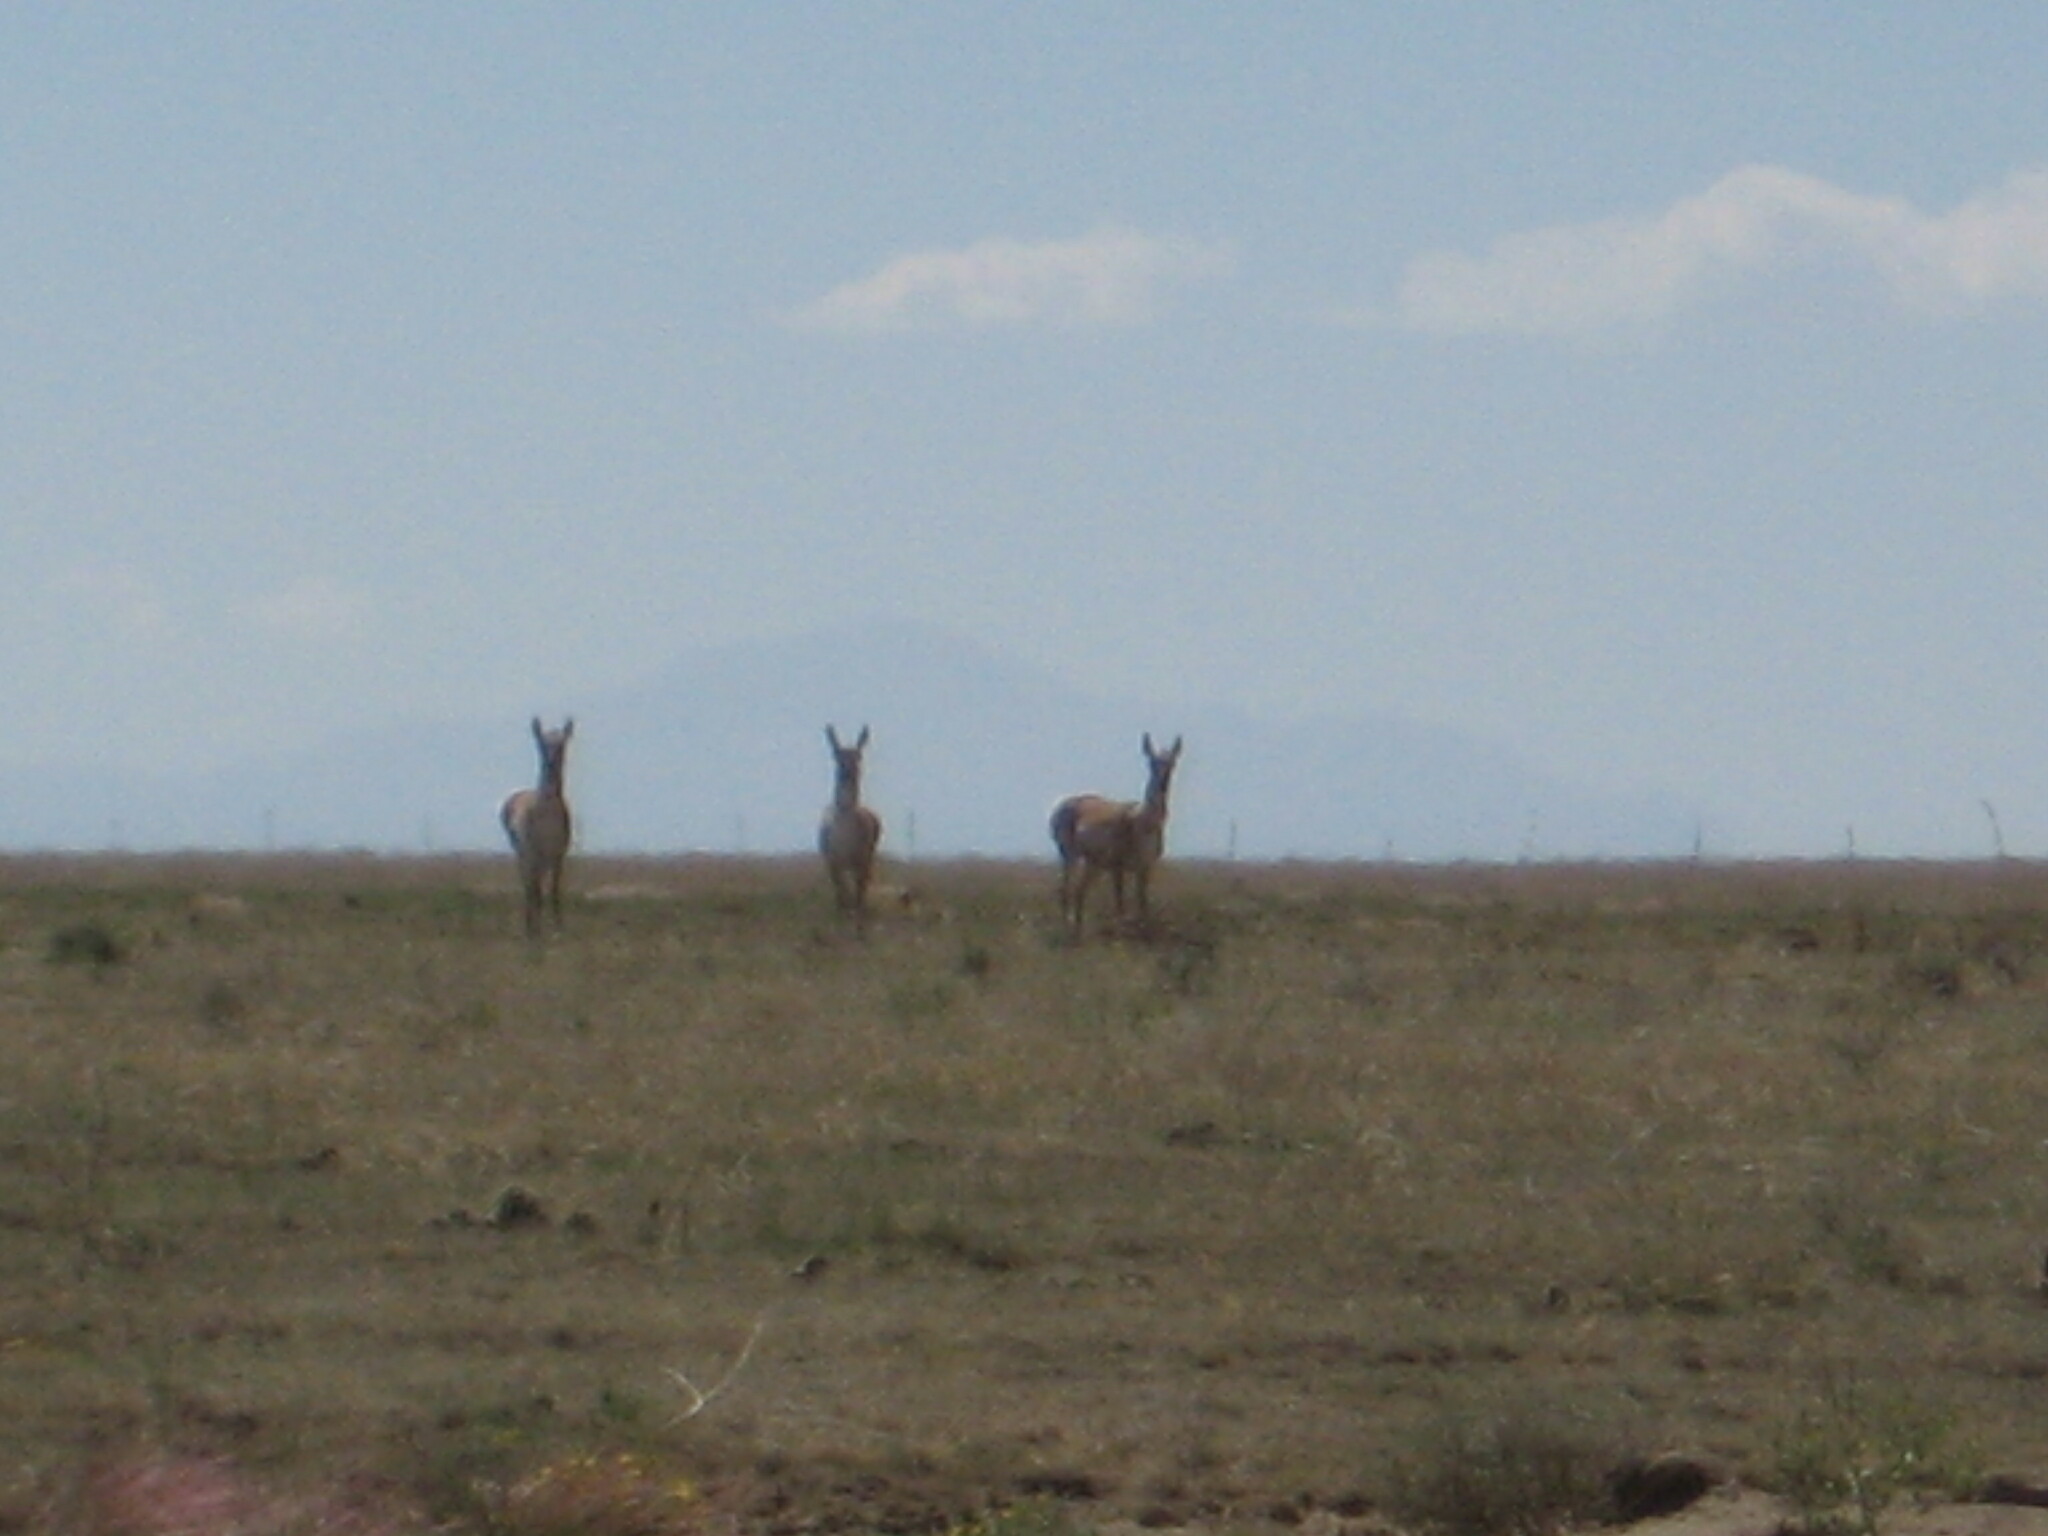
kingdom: Animalia
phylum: Chordata
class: Mammalia
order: Artiodactyla
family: Antilocapridae
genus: Antilocapra
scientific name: Antilocapra americana
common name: Pronghorn
